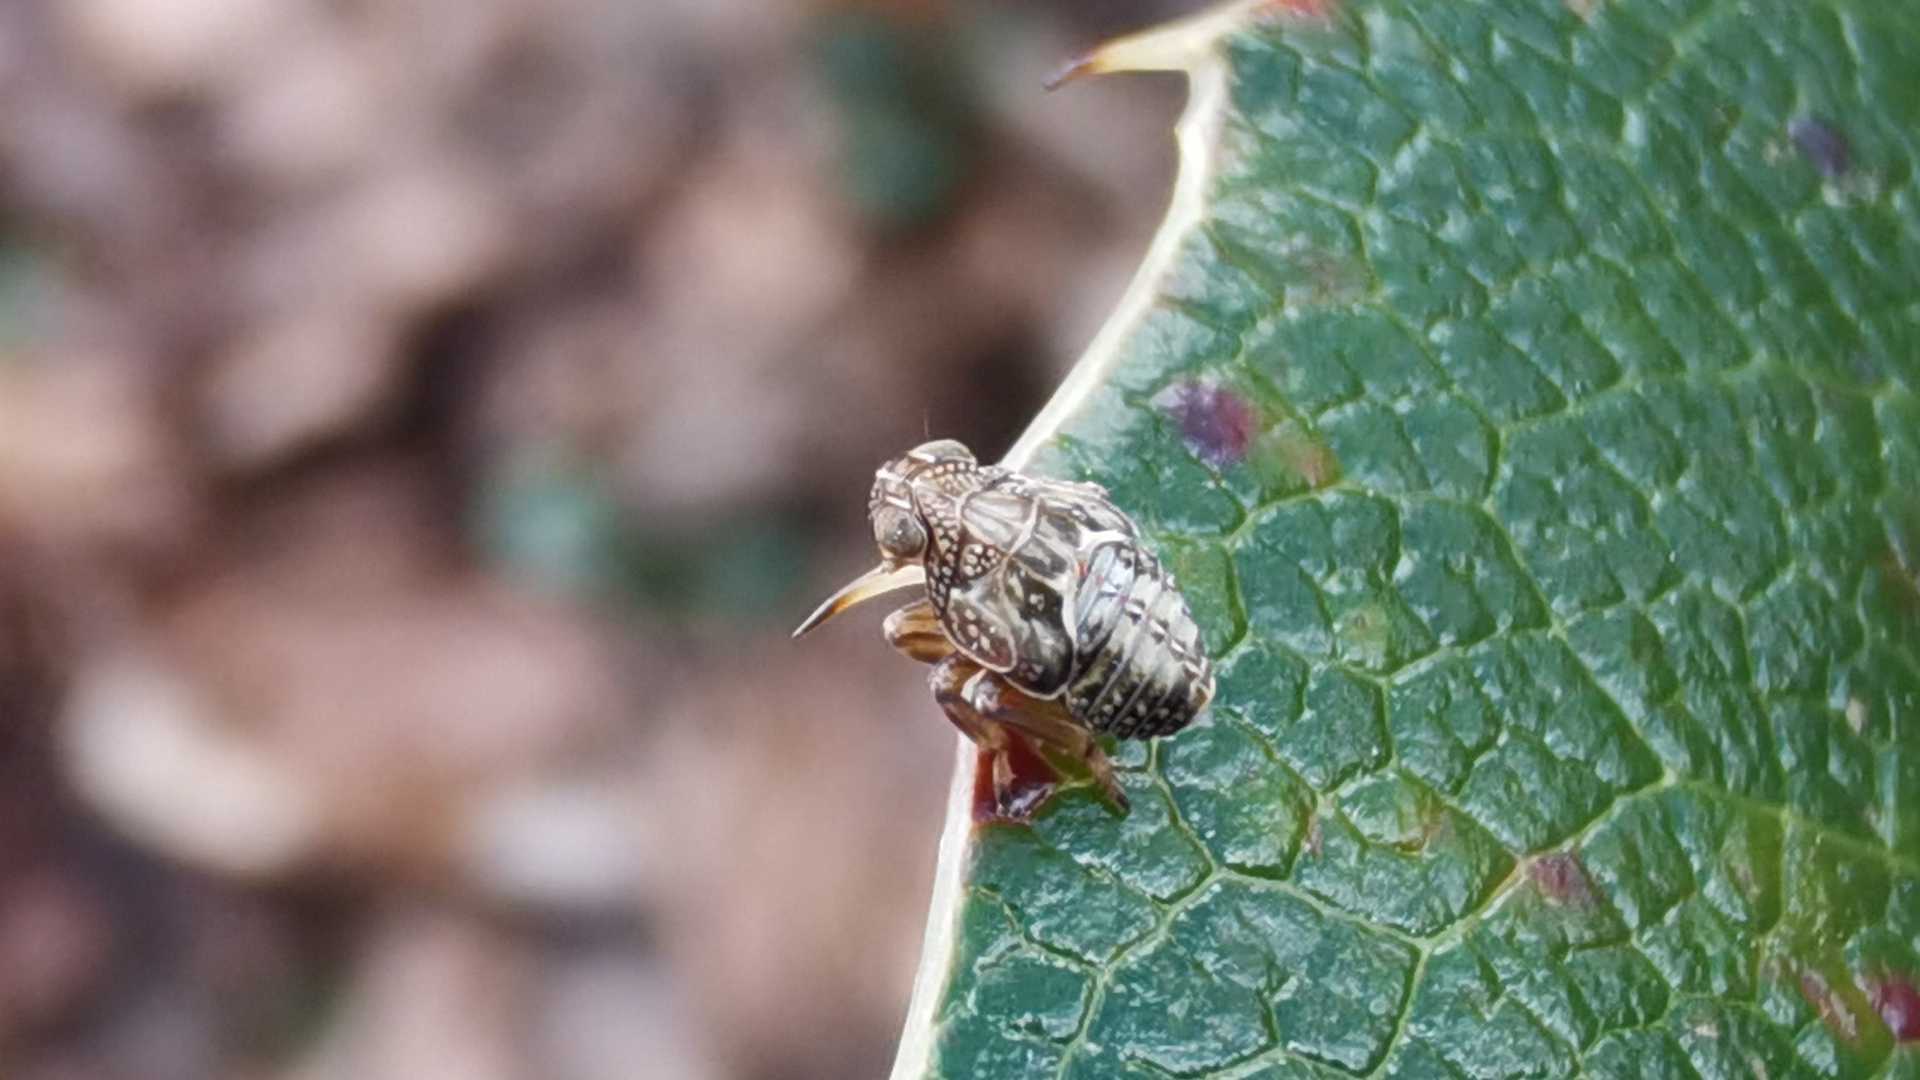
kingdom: Animalia
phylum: Arthropoda
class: Insecta
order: Hemiptera
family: Issidae
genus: Issus
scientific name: Issus
